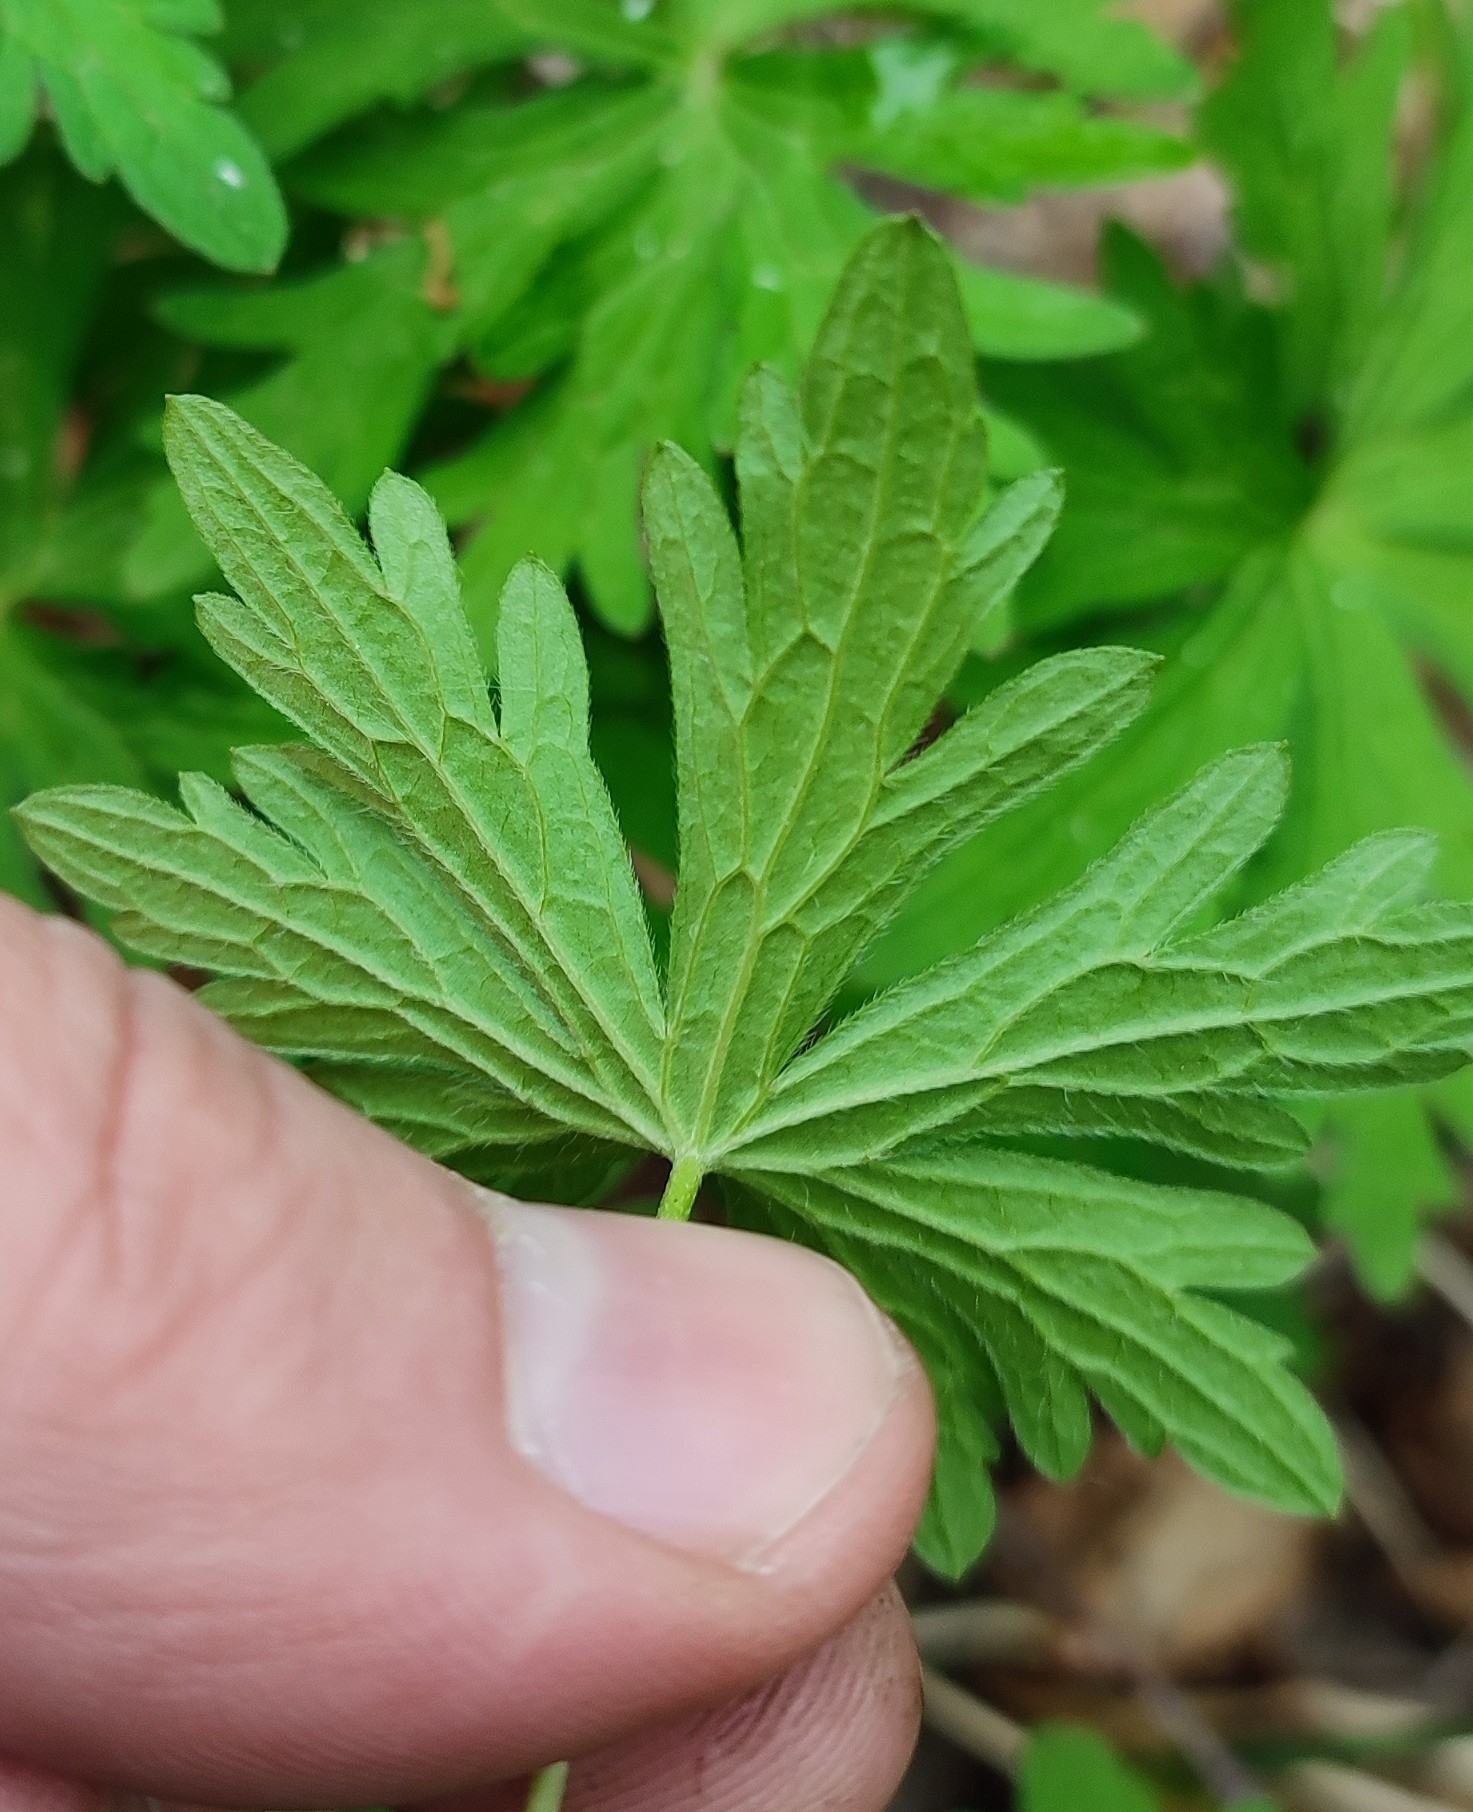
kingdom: Plantae
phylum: Tracheophyta
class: Magnoliopsida
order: Geraniales
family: Geraniaceae
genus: Geranium
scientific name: Geranium pseudosibiricum
